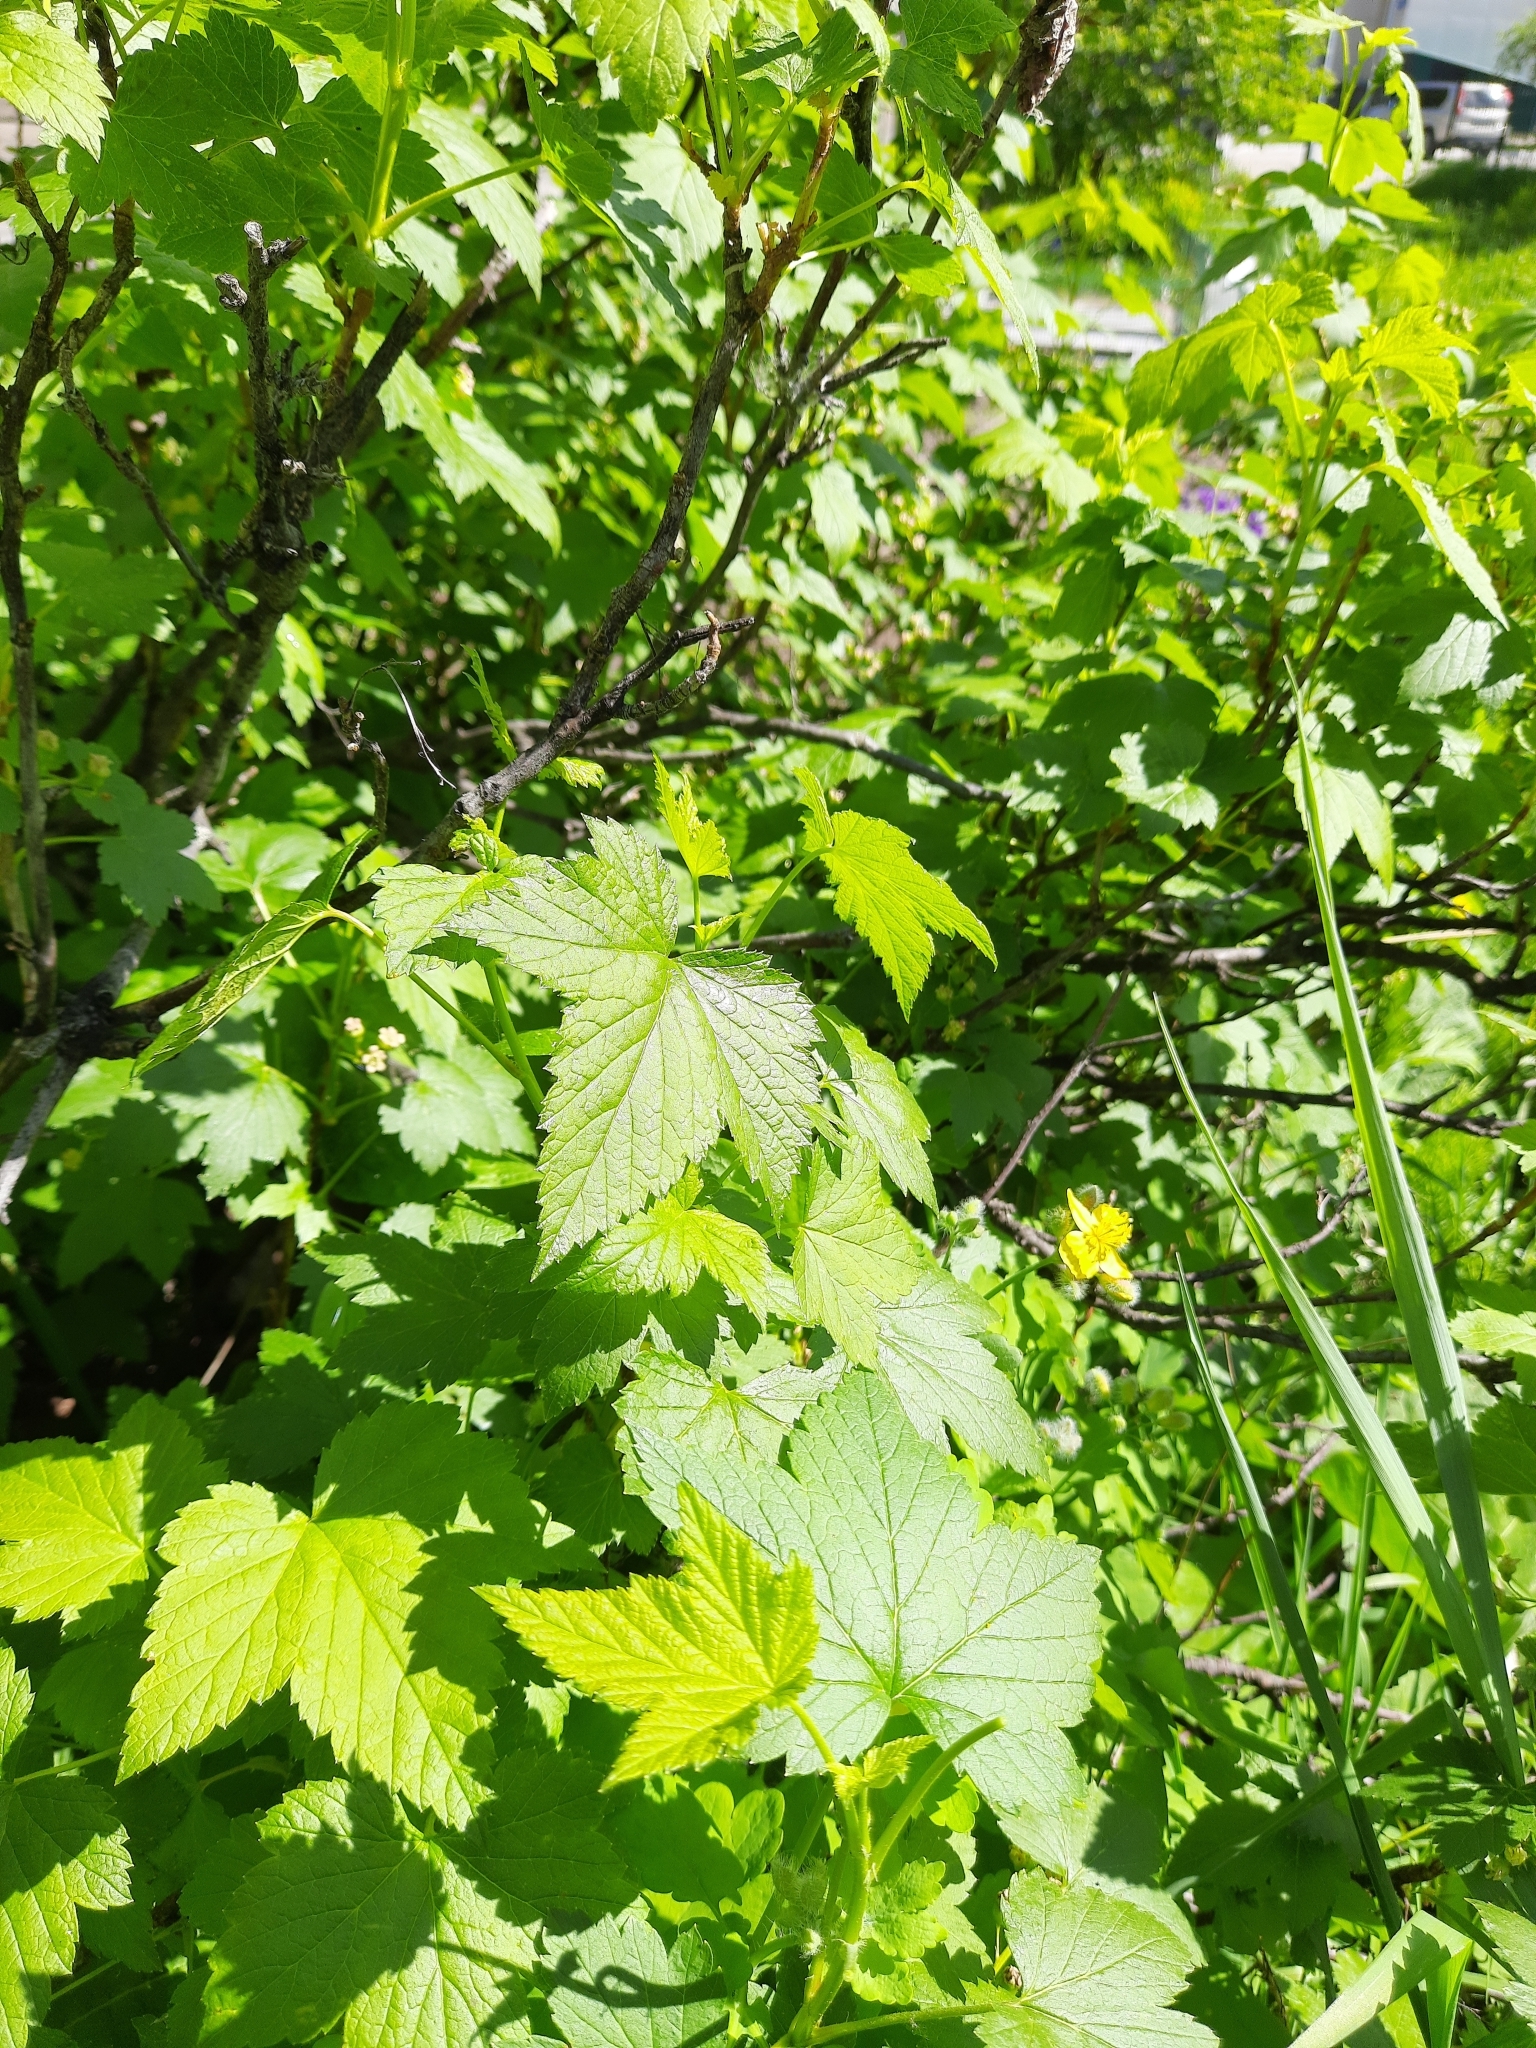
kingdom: Plantae
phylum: Tracheophyta
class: Magnoliopsida
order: Saxifragales
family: Grossulariaceae
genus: Ribes
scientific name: Ribes nigrum
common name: Black currant
